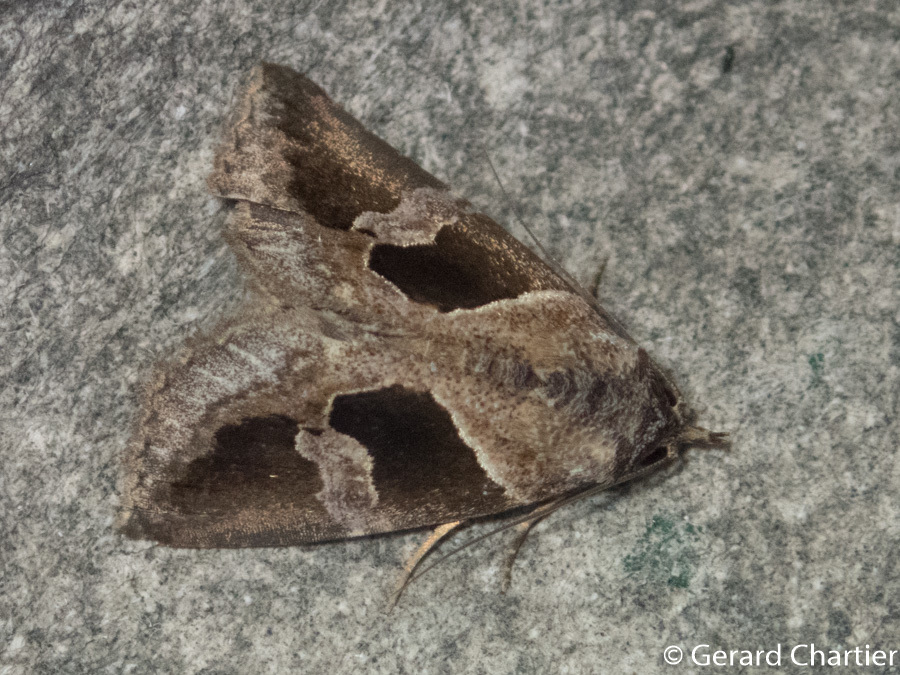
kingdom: Animalia
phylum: Arthropoda
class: Insecta
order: Lepidoptera
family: Erebidae
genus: Sarobela
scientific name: Sarobela litterata
